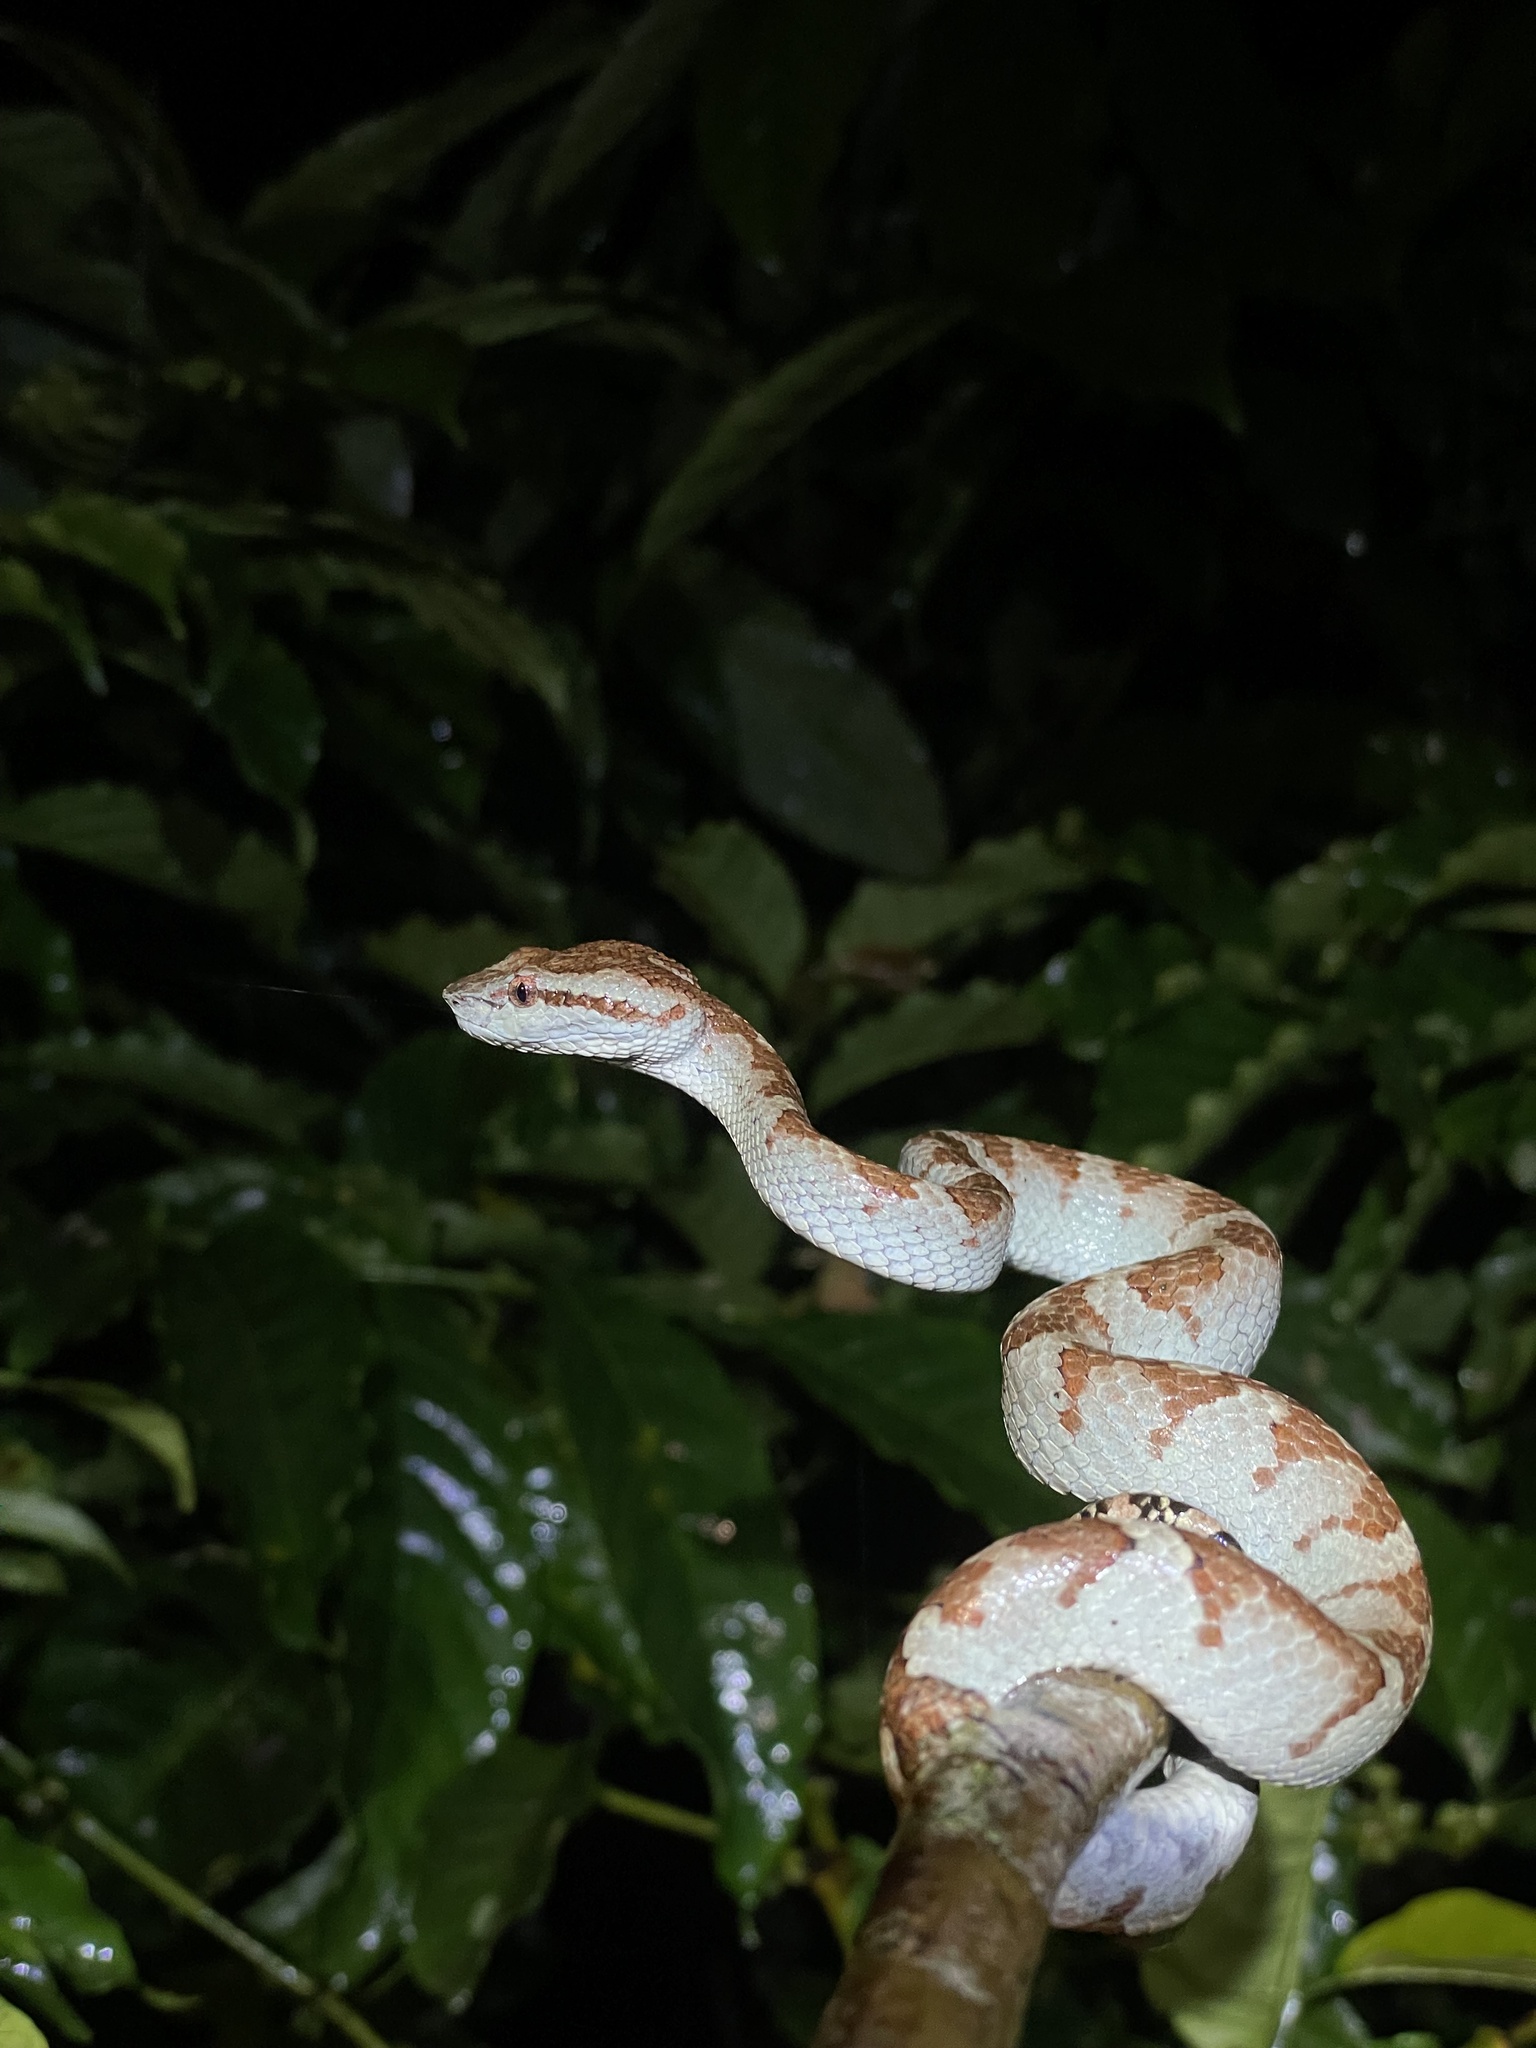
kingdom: Animalia
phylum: Chordata
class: Squamata
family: Viperidae
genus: Craspedocephalus
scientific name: Craspedocephalus malabaricus
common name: Malabarian pit viper
